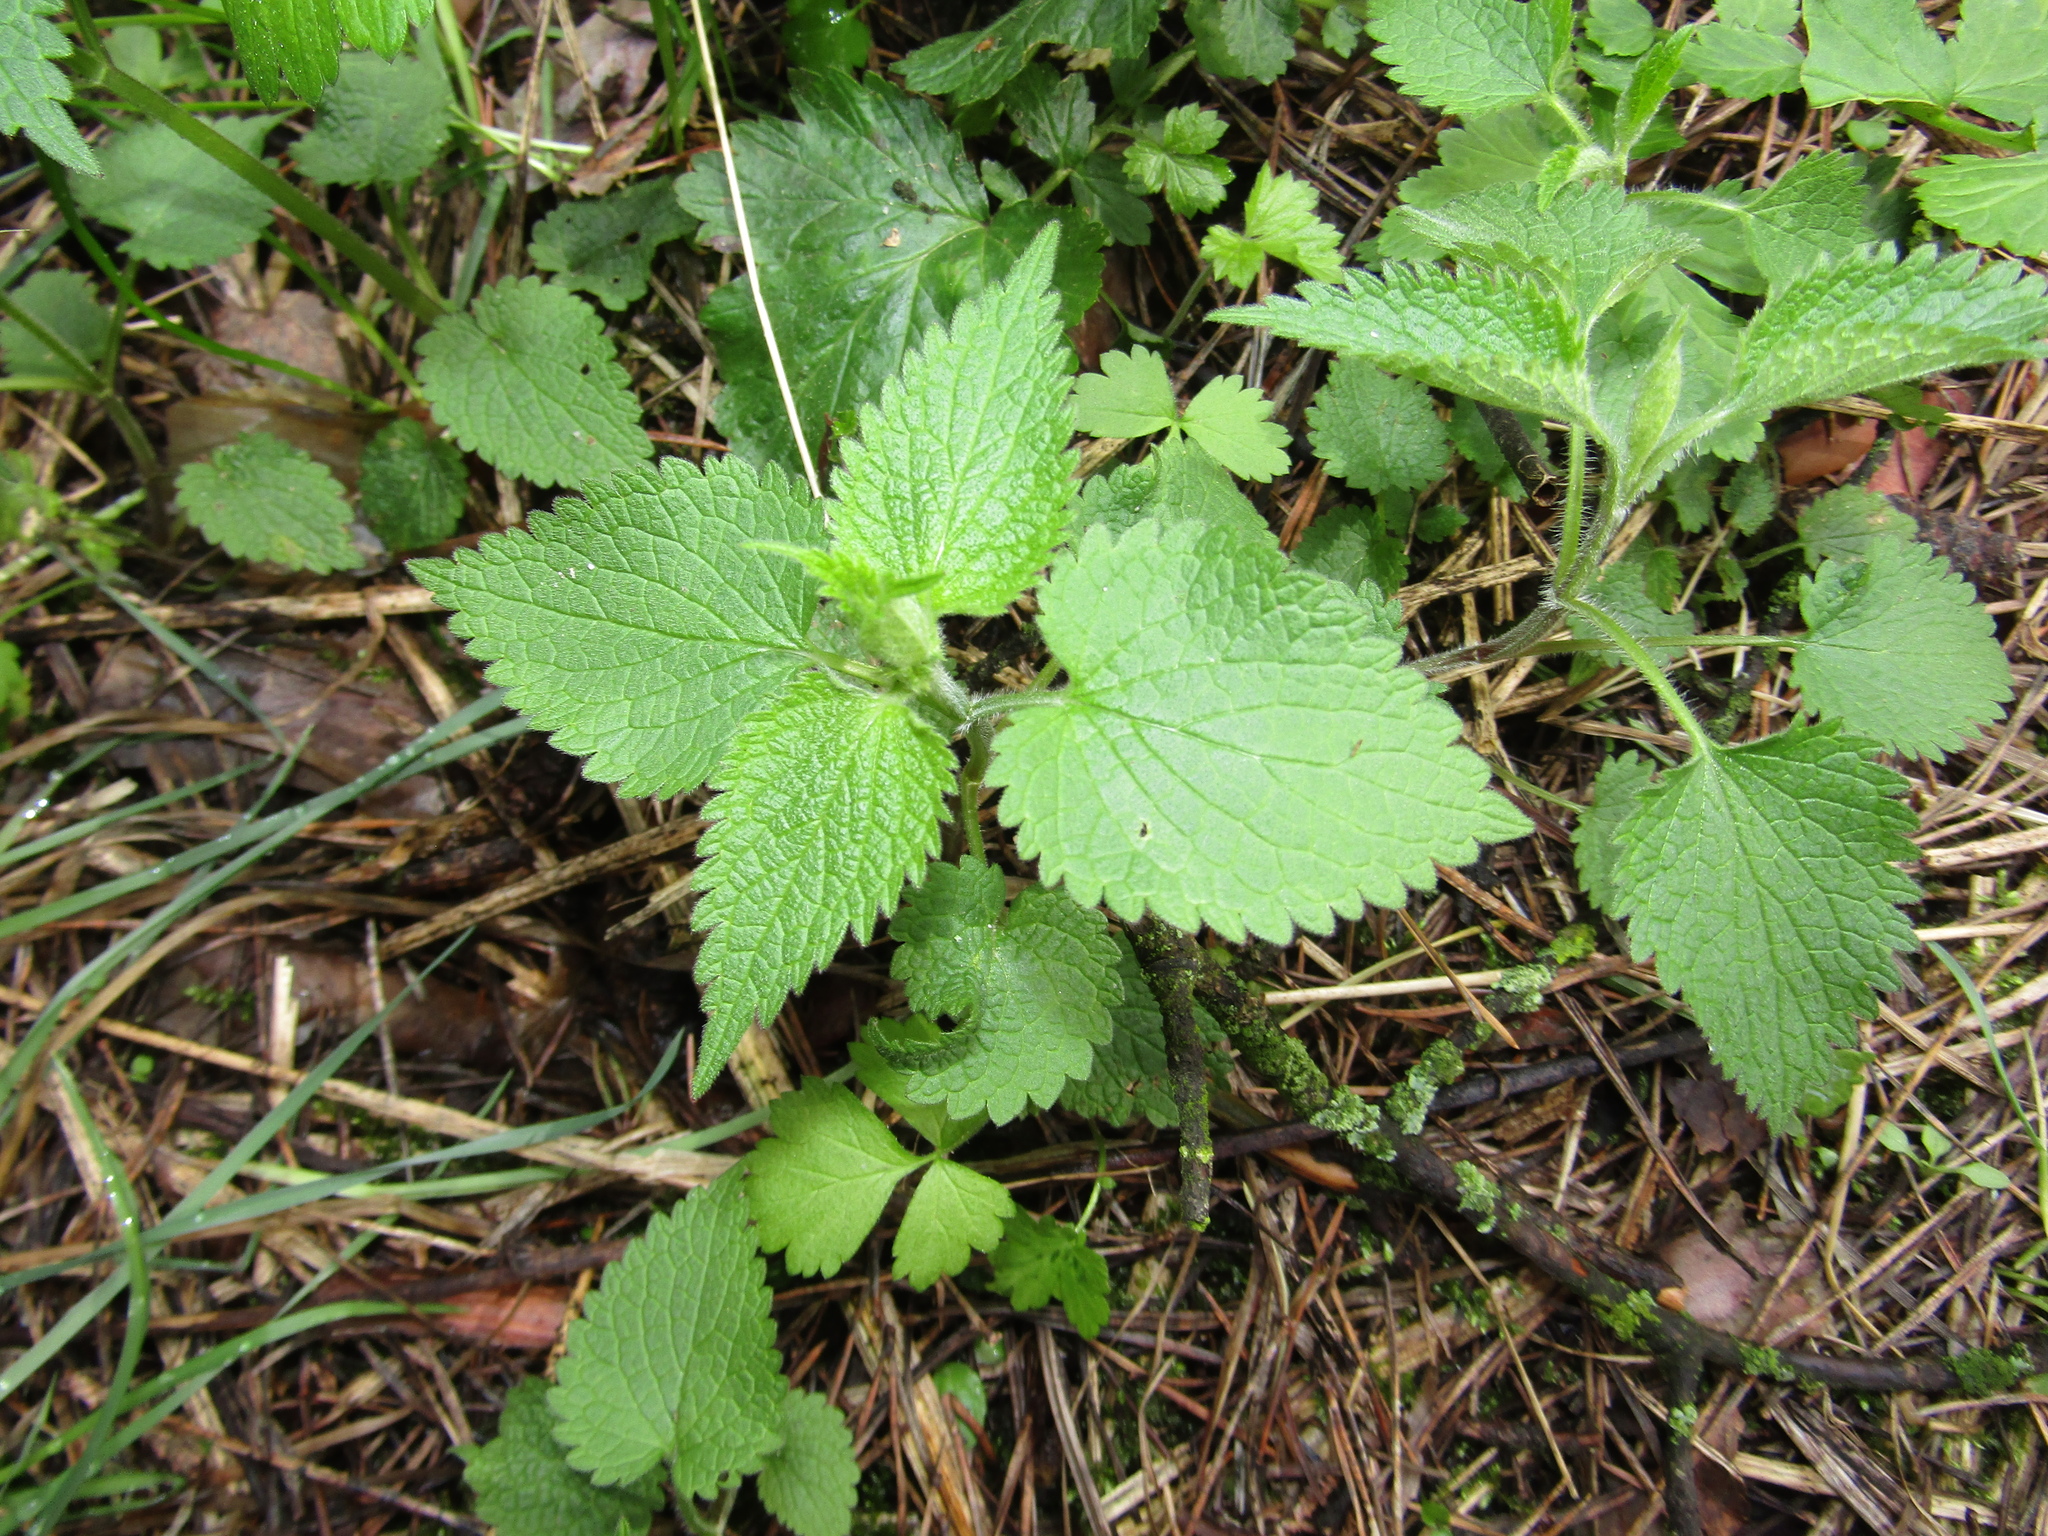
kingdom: Plantae
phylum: Tracheophyta
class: Magnoliopsida
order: Lamiales
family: Lamiaceae
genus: Lamium
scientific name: Lamium album
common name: White dead-nettle
